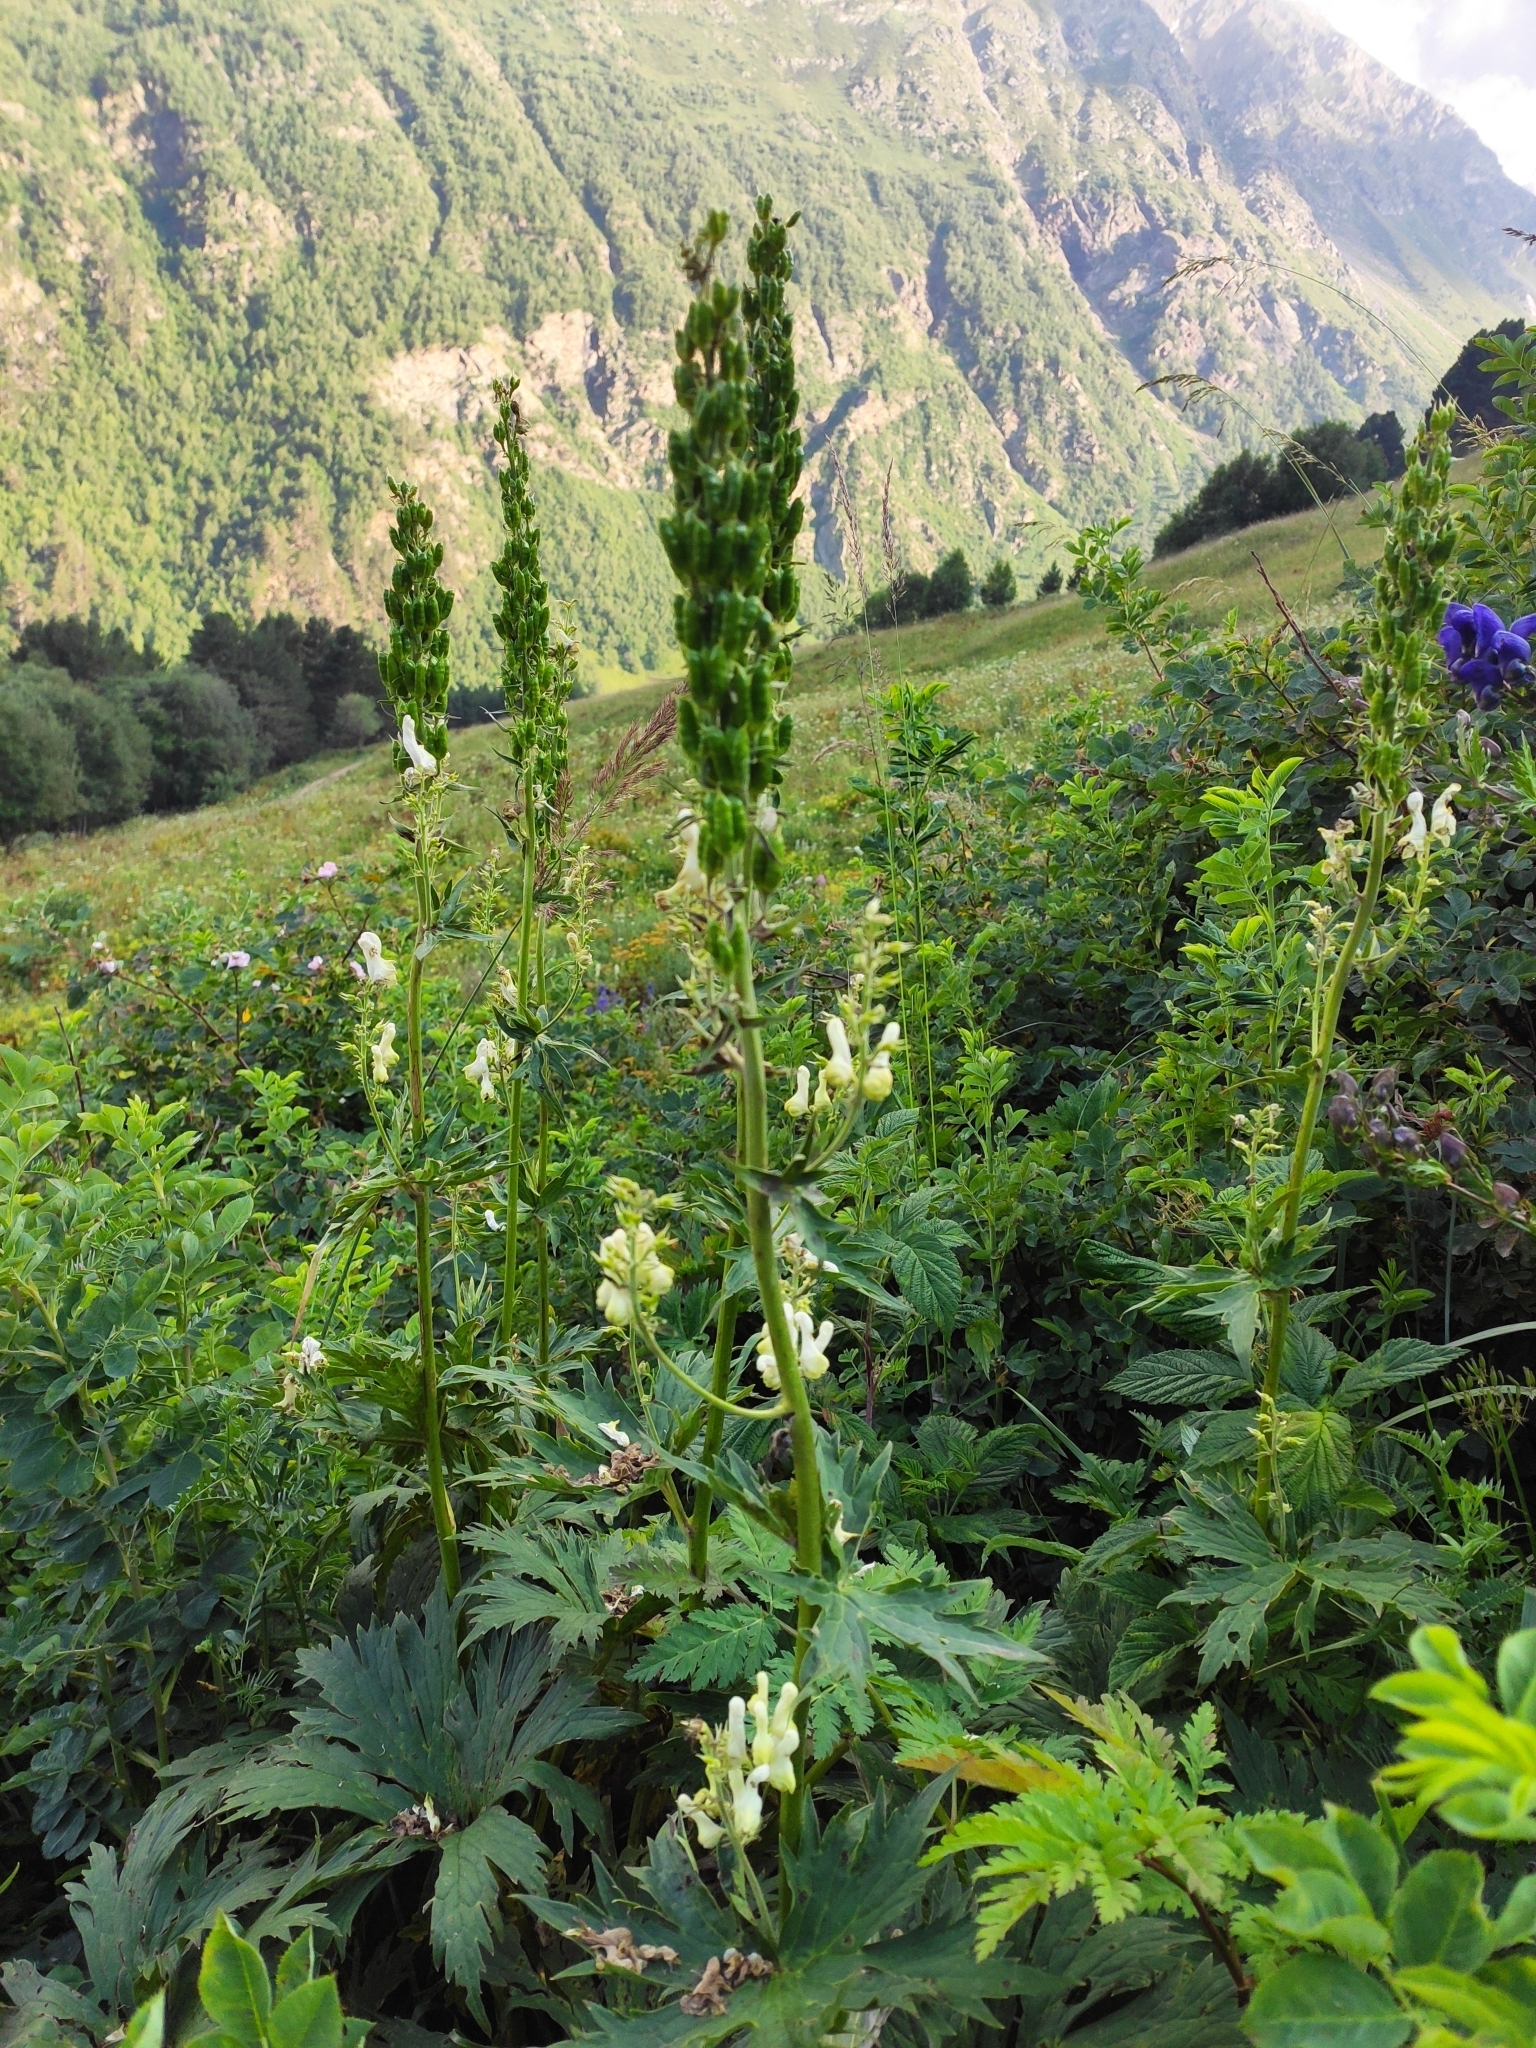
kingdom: Plantae
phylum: Tracheophyta
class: Magnoliopsida
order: Ranunculales
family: Ranunculaceae
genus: Aconitum
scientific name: Aconitum orientale
